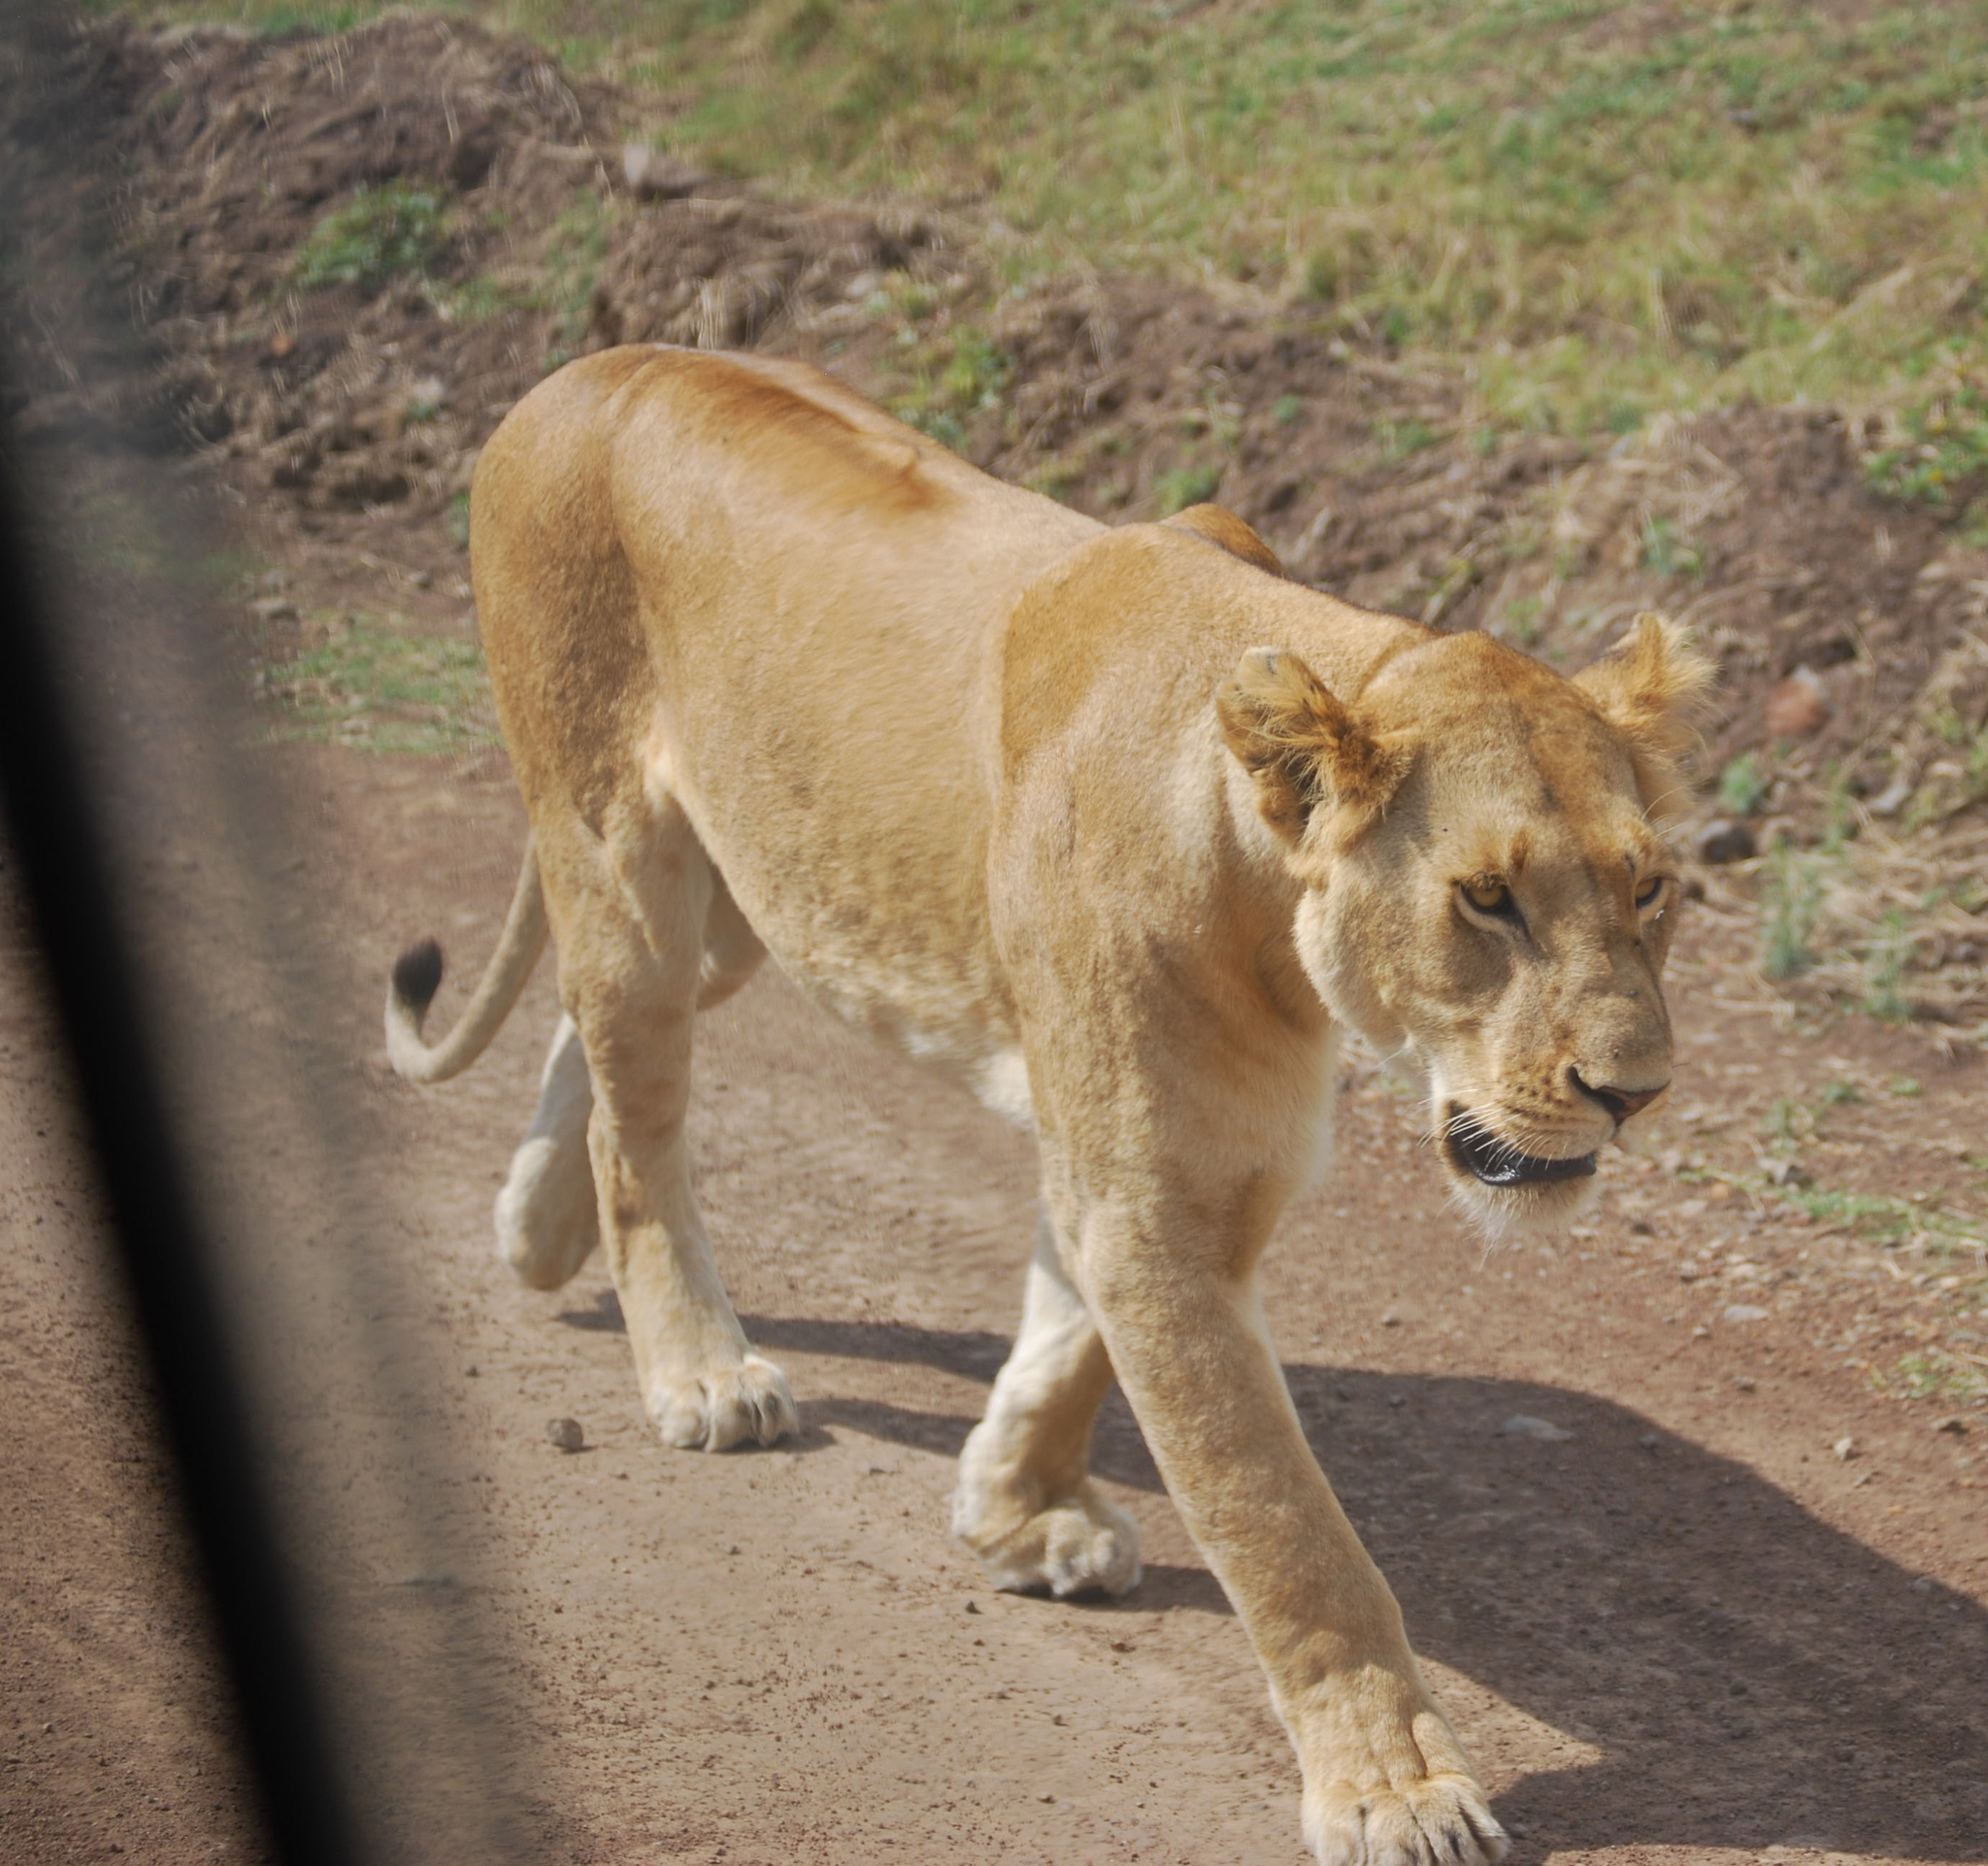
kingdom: Animalia
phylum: Chordata
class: Mammalia
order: Carnivora
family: Felidae
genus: Panthera
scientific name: Panthera leo
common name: Lion
